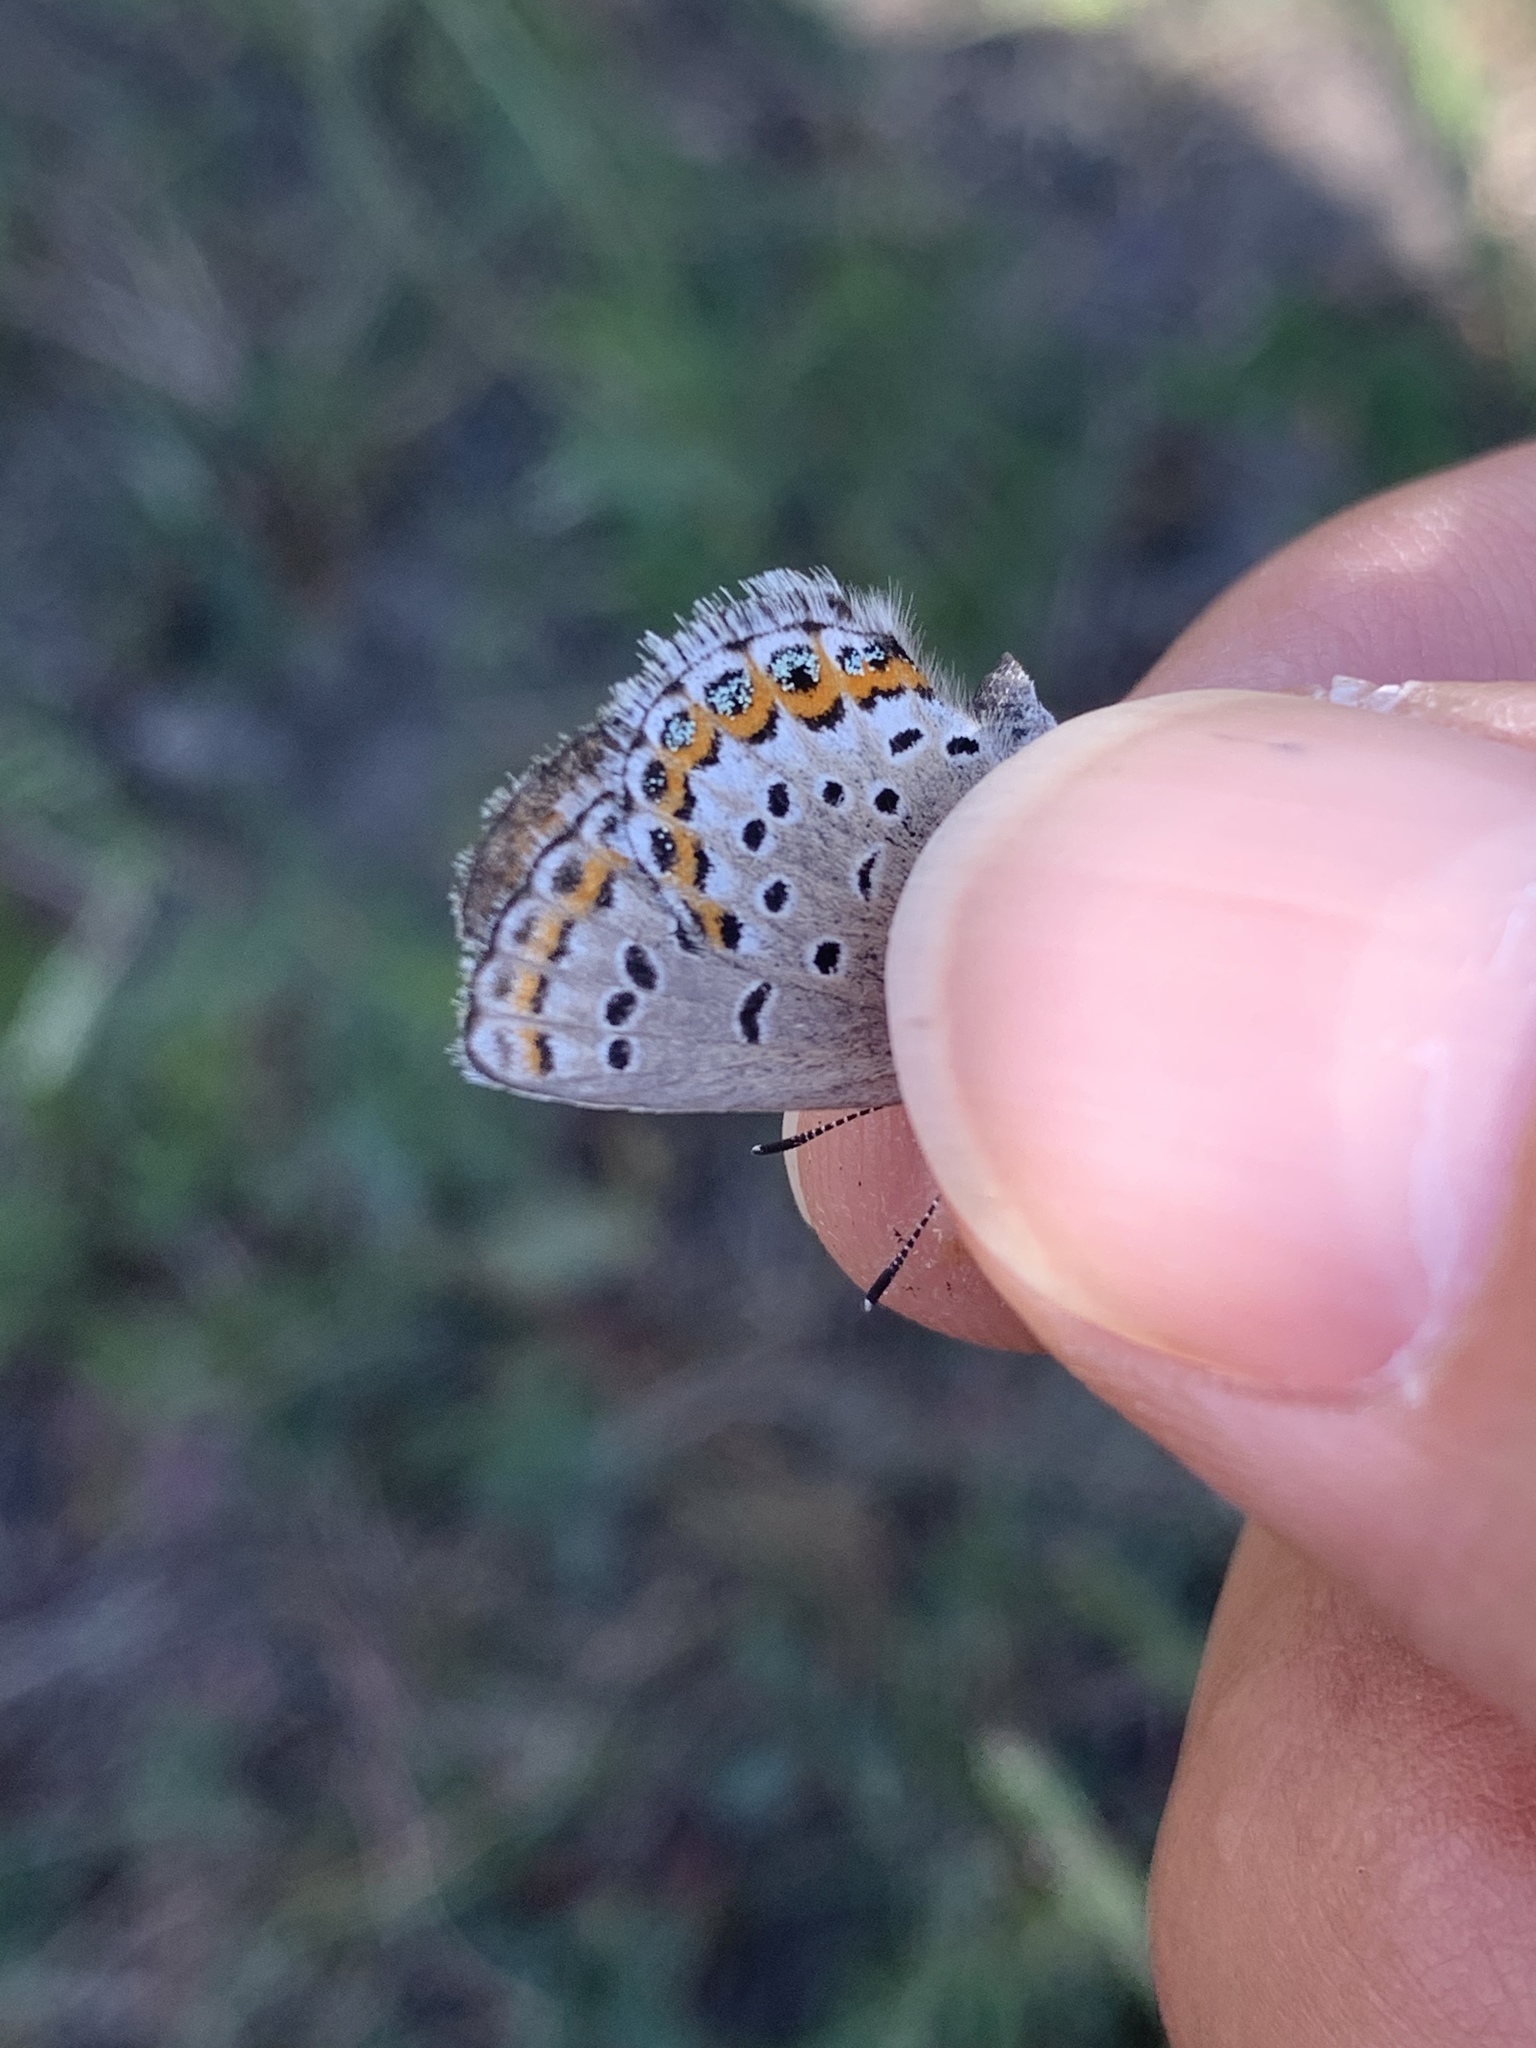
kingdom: Animalia
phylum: Arthropoda
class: Insecta
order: Lepidoptera
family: Lycaenidae
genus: Lycaeides
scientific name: Lycaeides idas
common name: Northern blue
